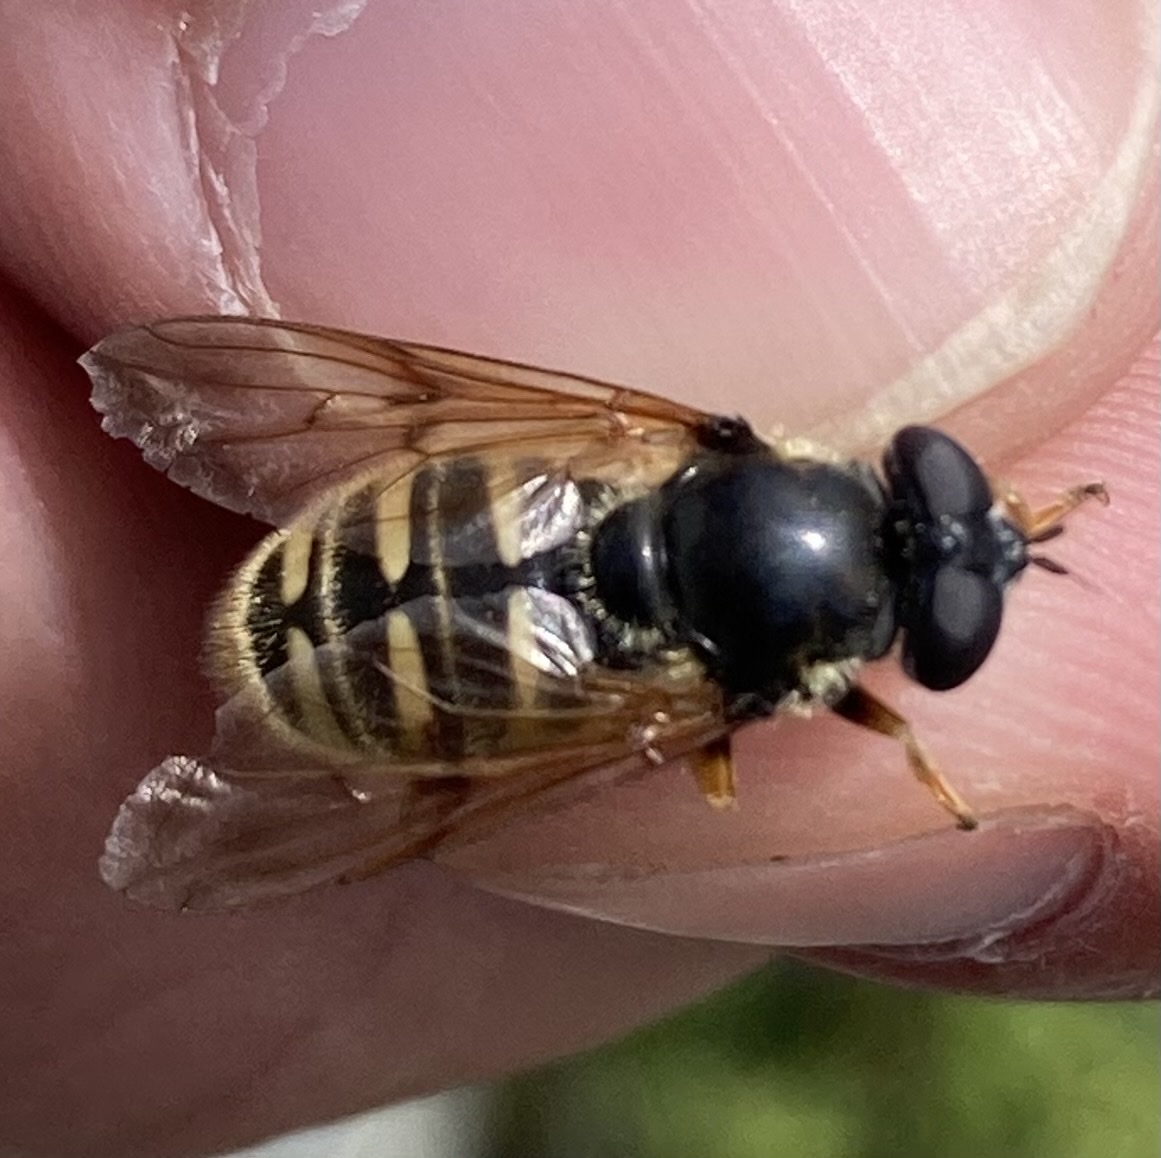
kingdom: Animalia
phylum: Arthropoda
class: Insecta
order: Diptera
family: Syrphidae
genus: Sericomyia
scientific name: Sericomyia bifasciata
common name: Long-nosed pond fly
